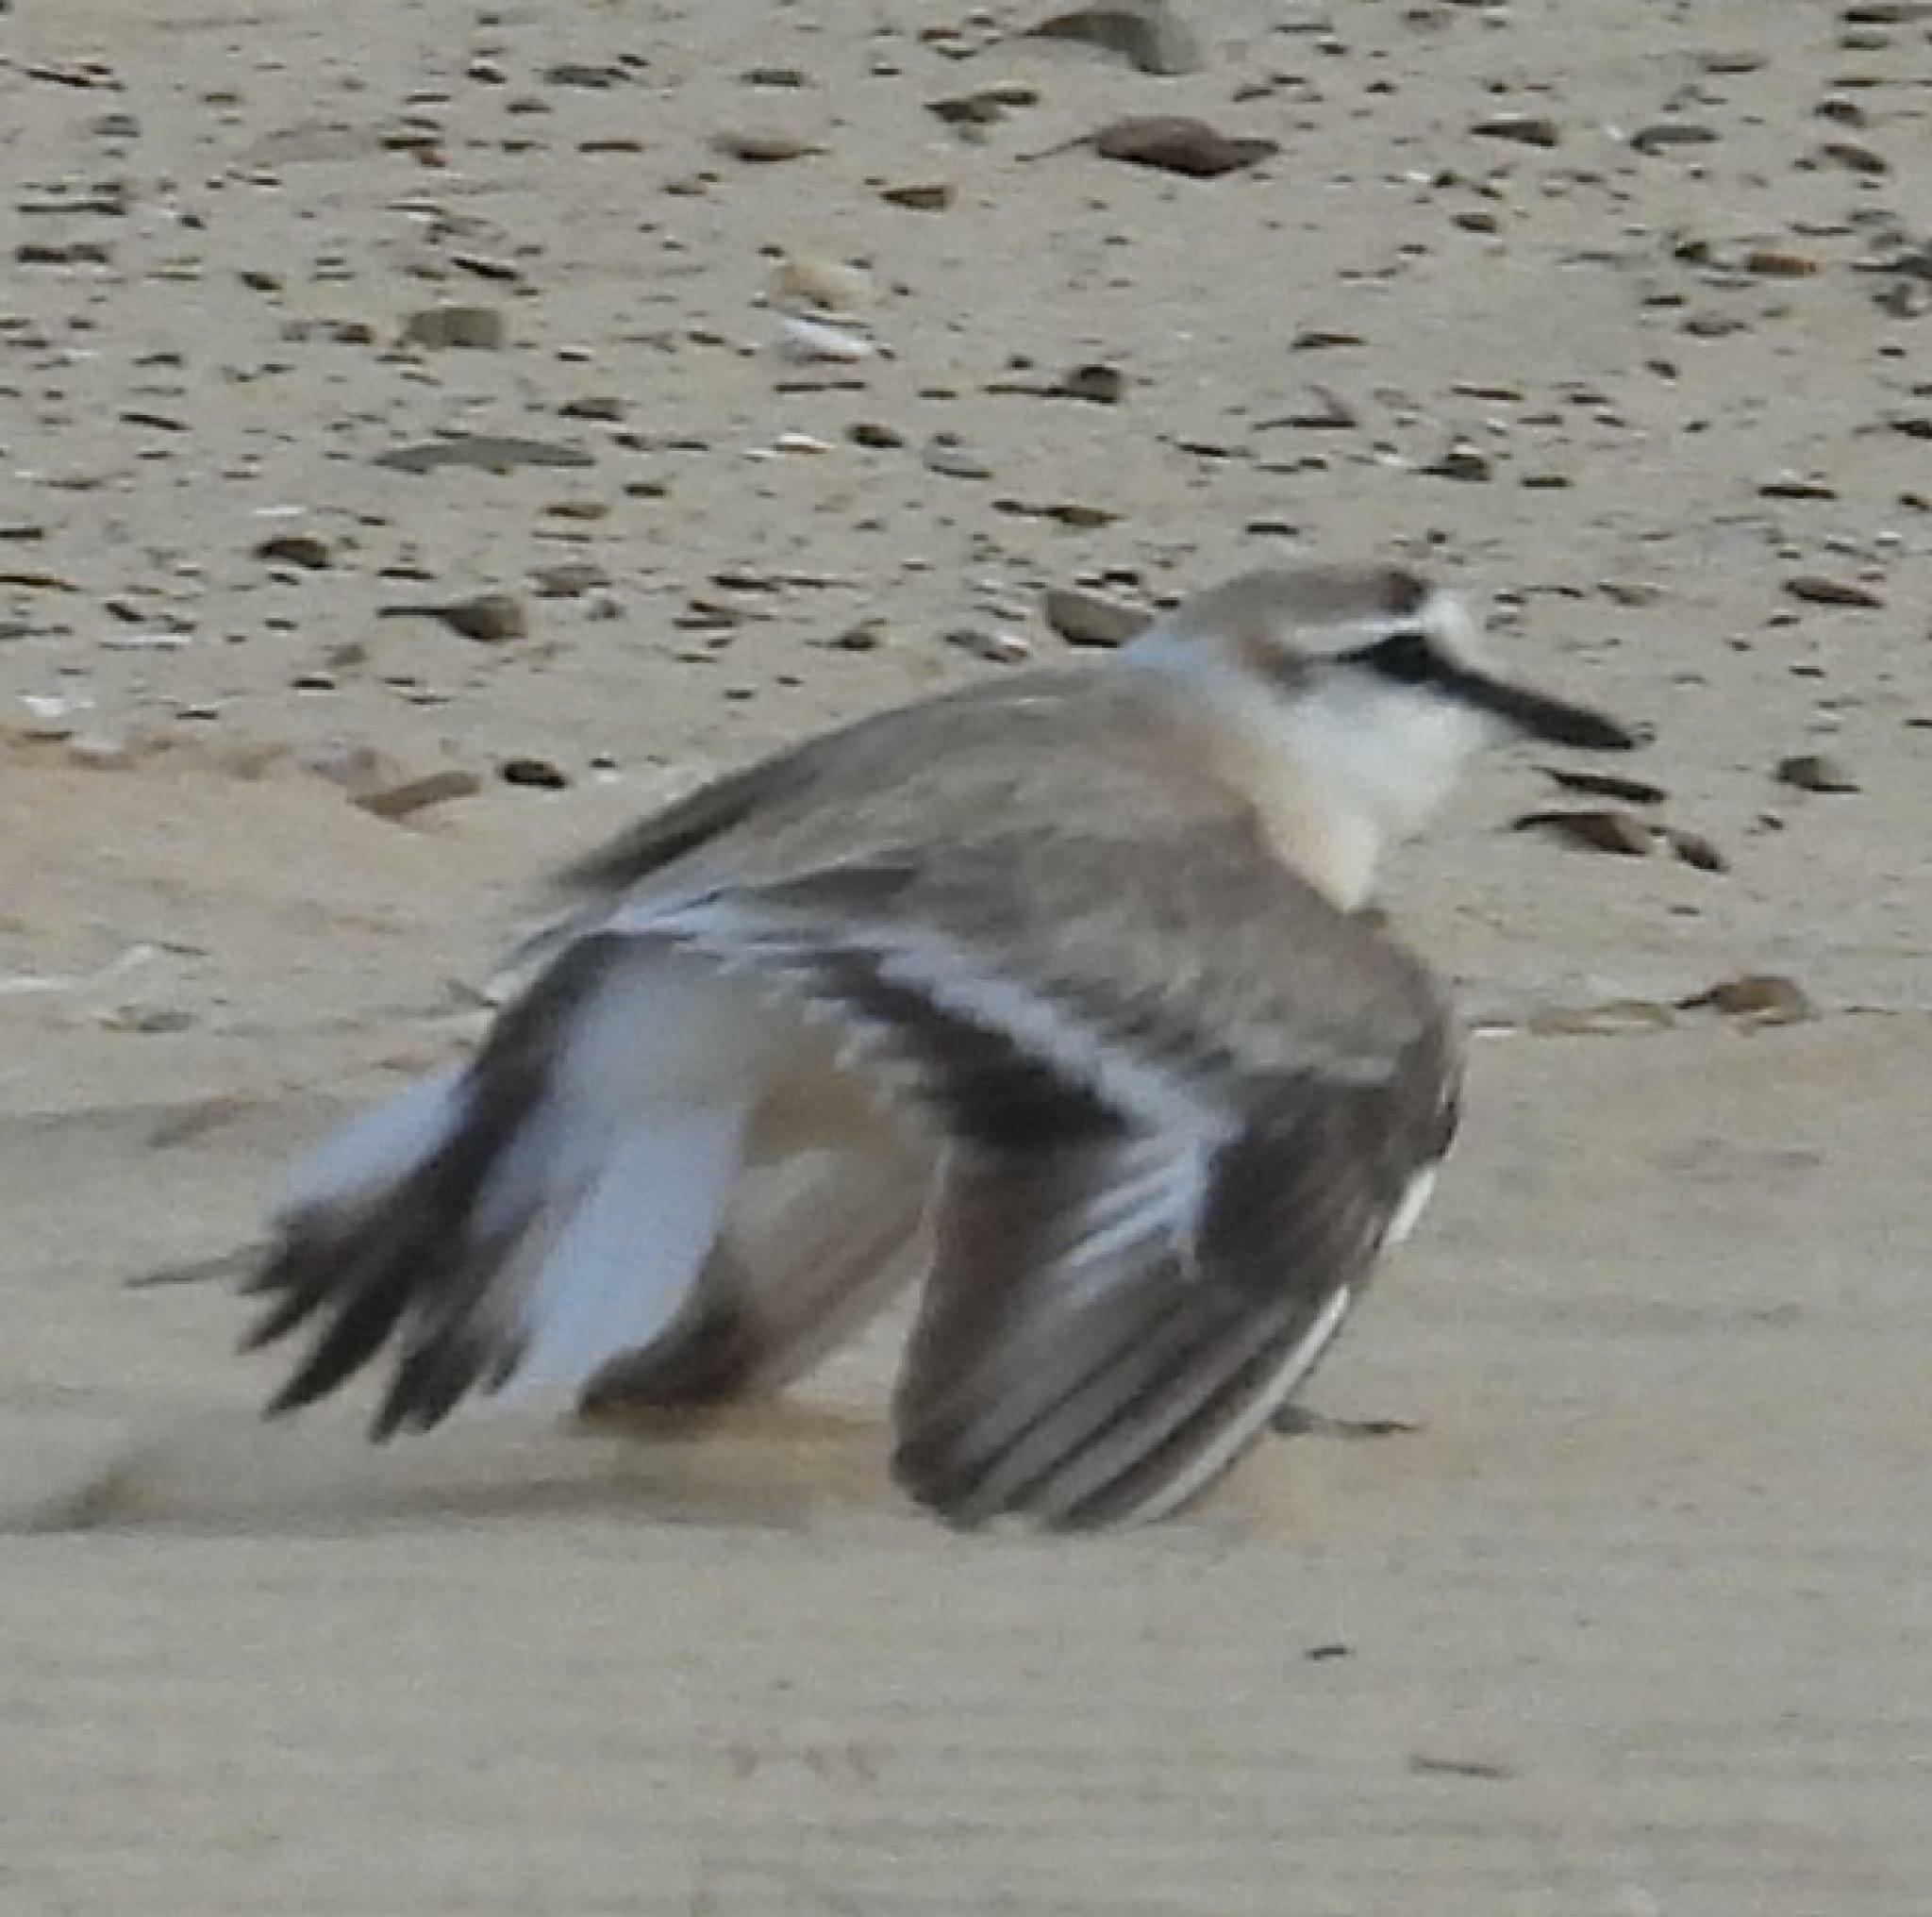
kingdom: Animalia
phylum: Chordata
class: Aves
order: Charadriiformes
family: Charadriidae
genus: Anarhynchus
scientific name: Anarhynchus
